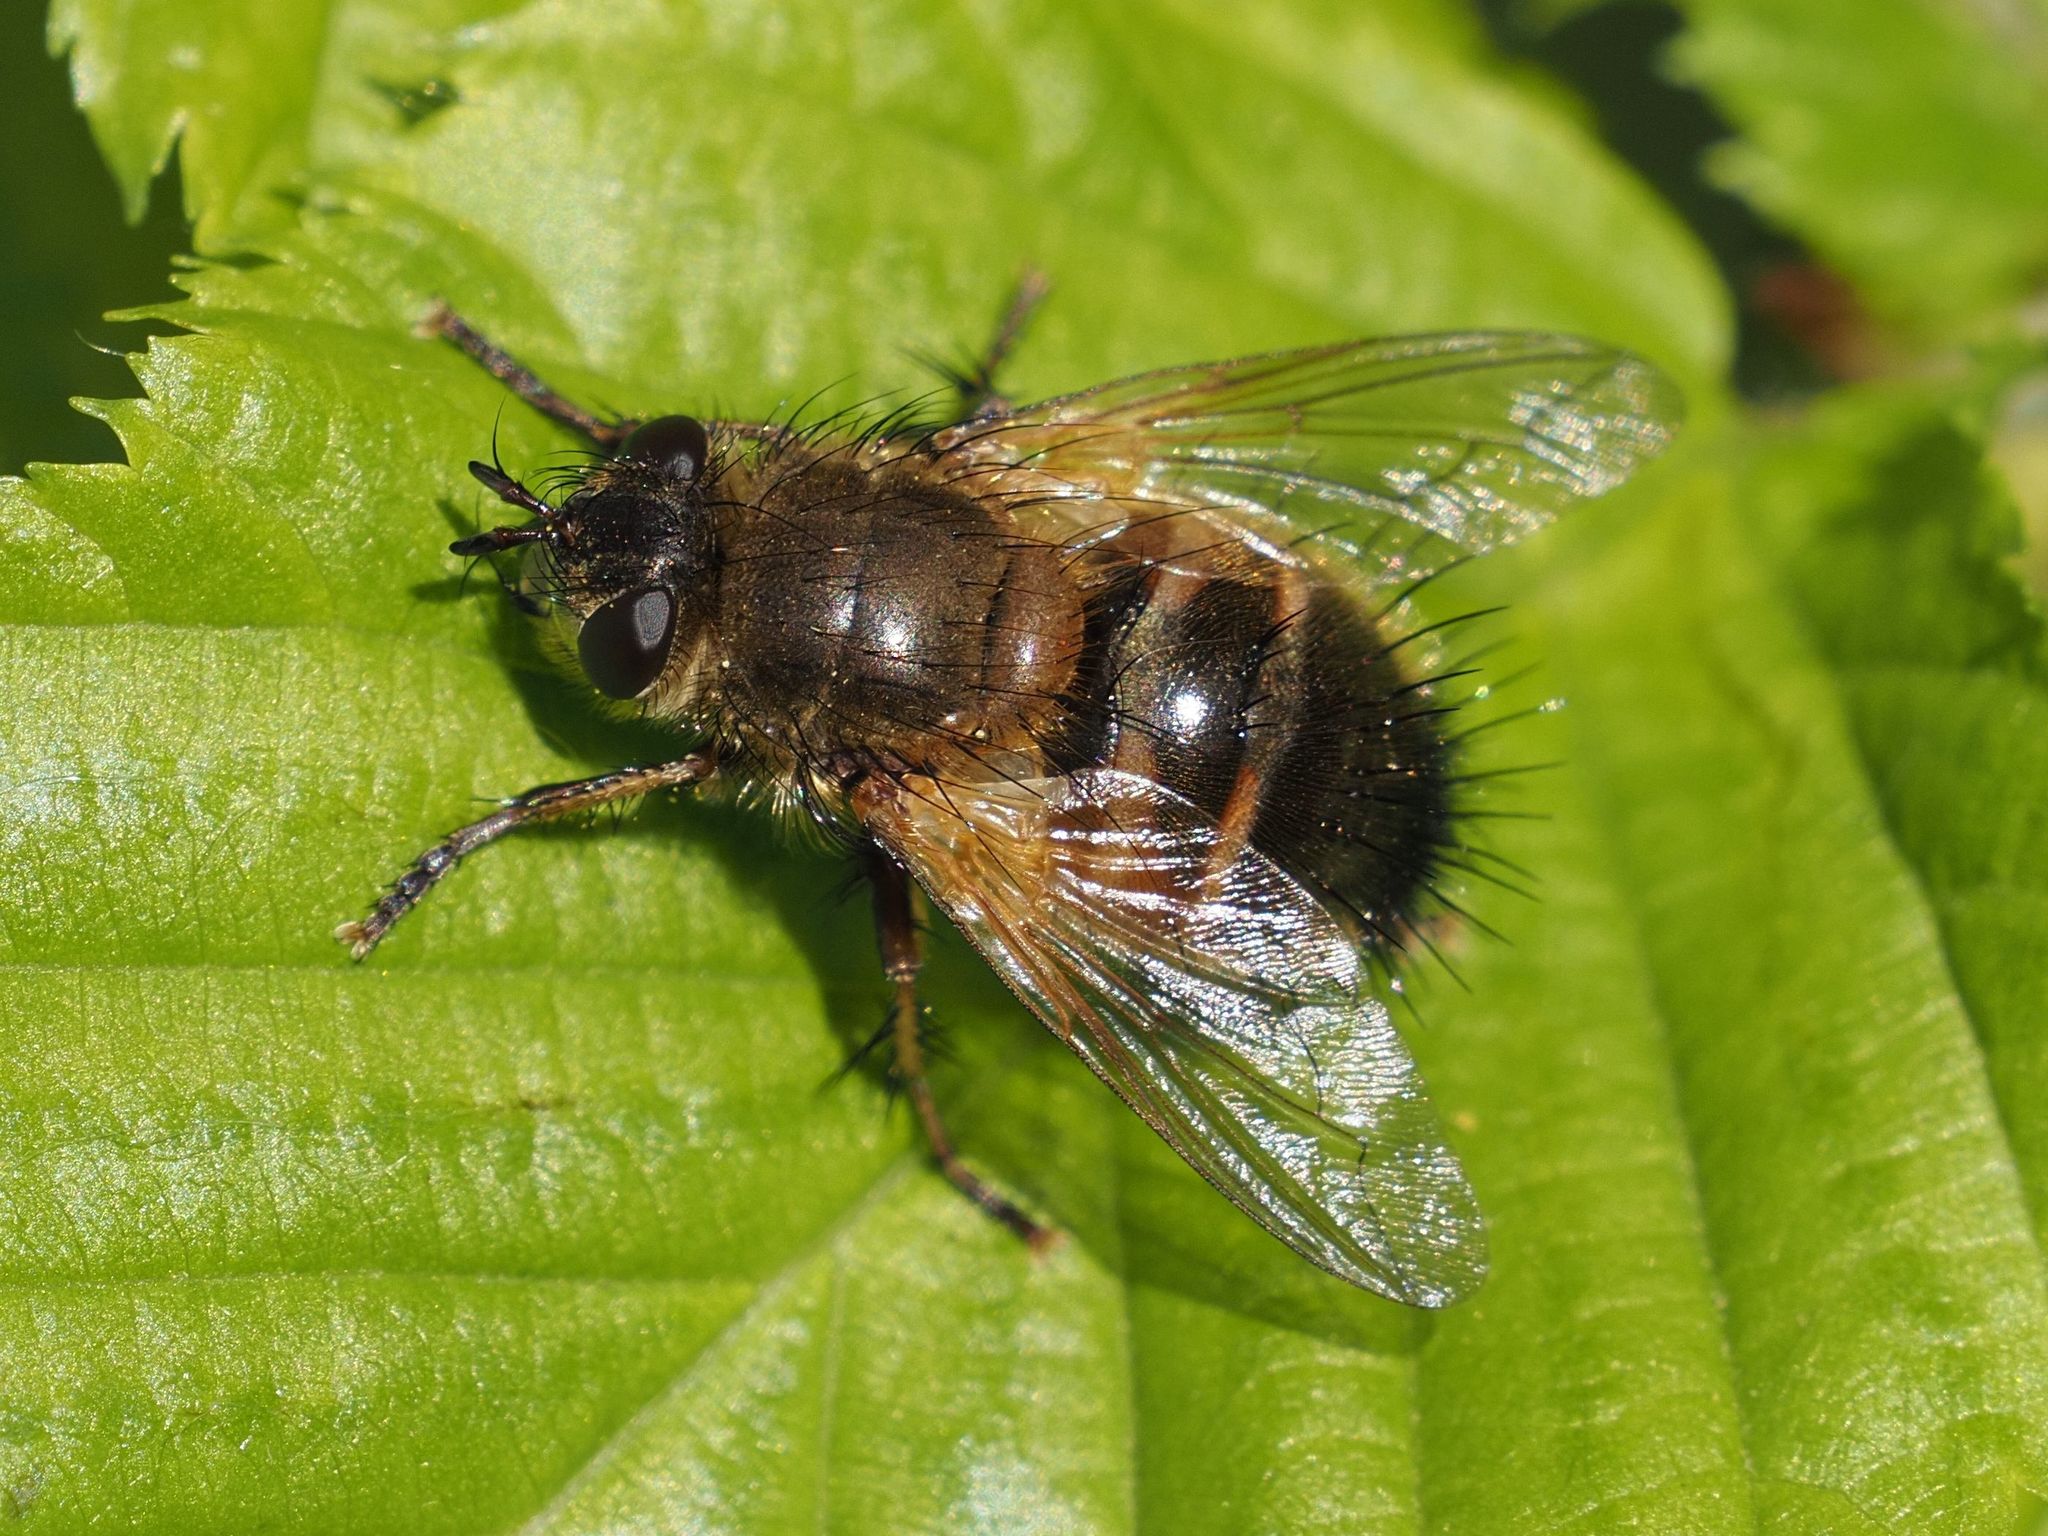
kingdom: Animalia
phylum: Arthropoda
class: Insecta
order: Diptera
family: Tachinidae
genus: Tachina
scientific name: Tachina lurida
